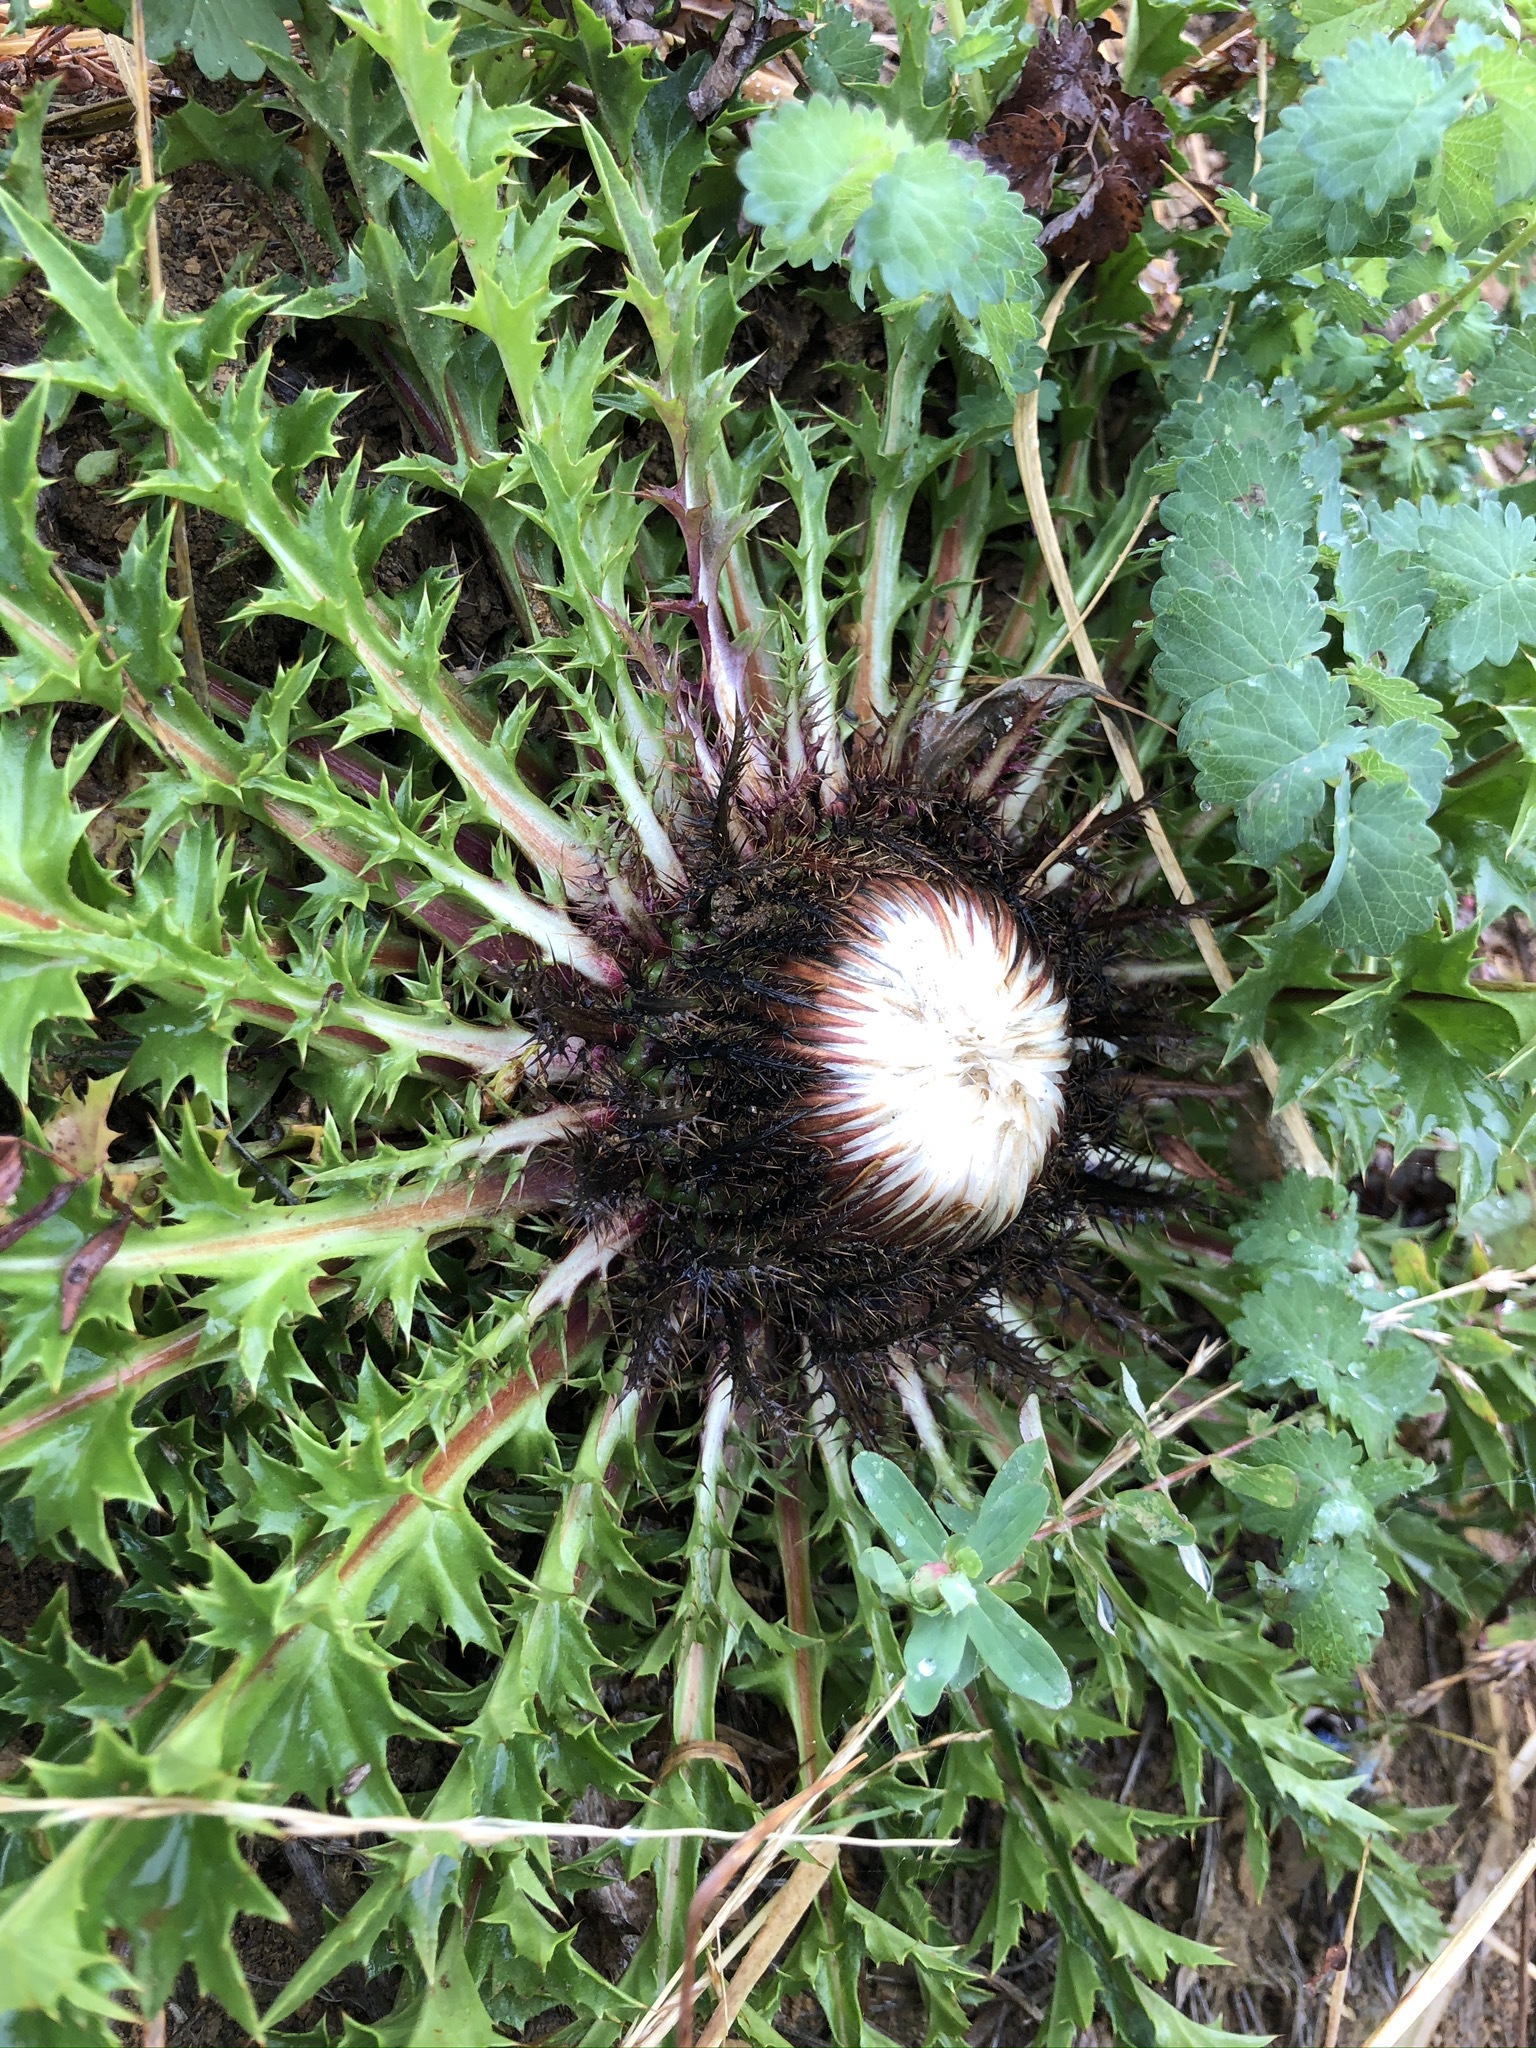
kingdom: Plantae
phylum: Tracheophyta
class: Magnoliopsida
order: Asterales
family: Asteraceae
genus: Carlina
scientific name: Carlina acaulis
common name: Stemless carline thistle
